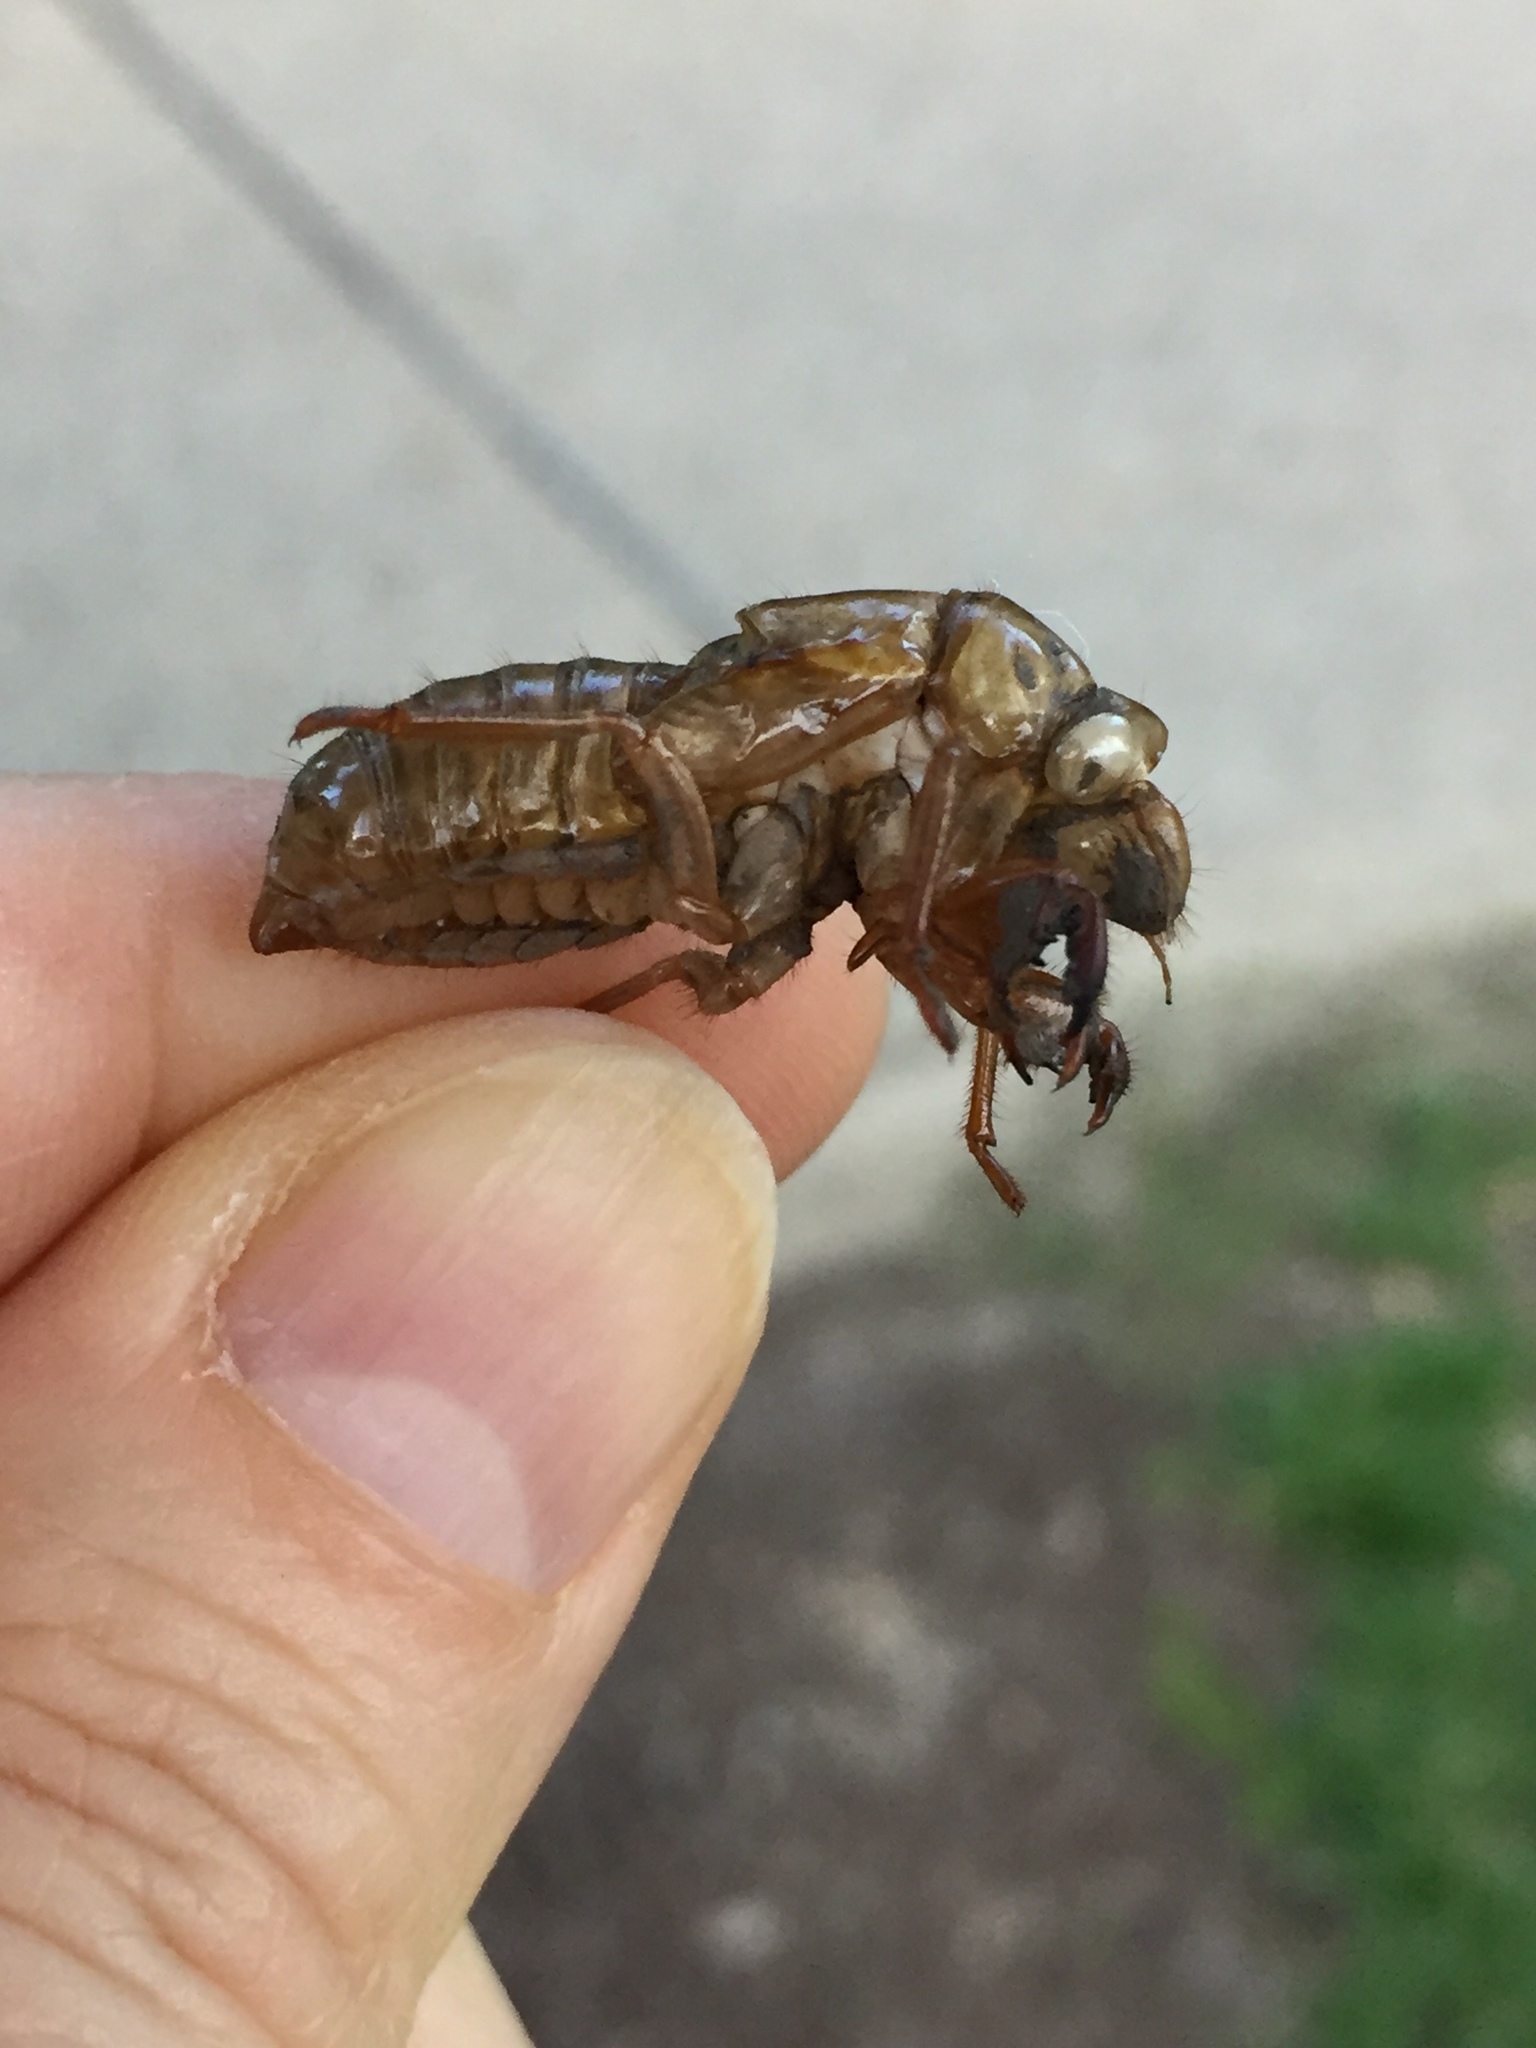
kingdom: Animalia
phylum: Arthropoda
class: Insecta
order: Hemiptera
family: Cicadidae
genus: Magicicada
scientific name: Magicicada
